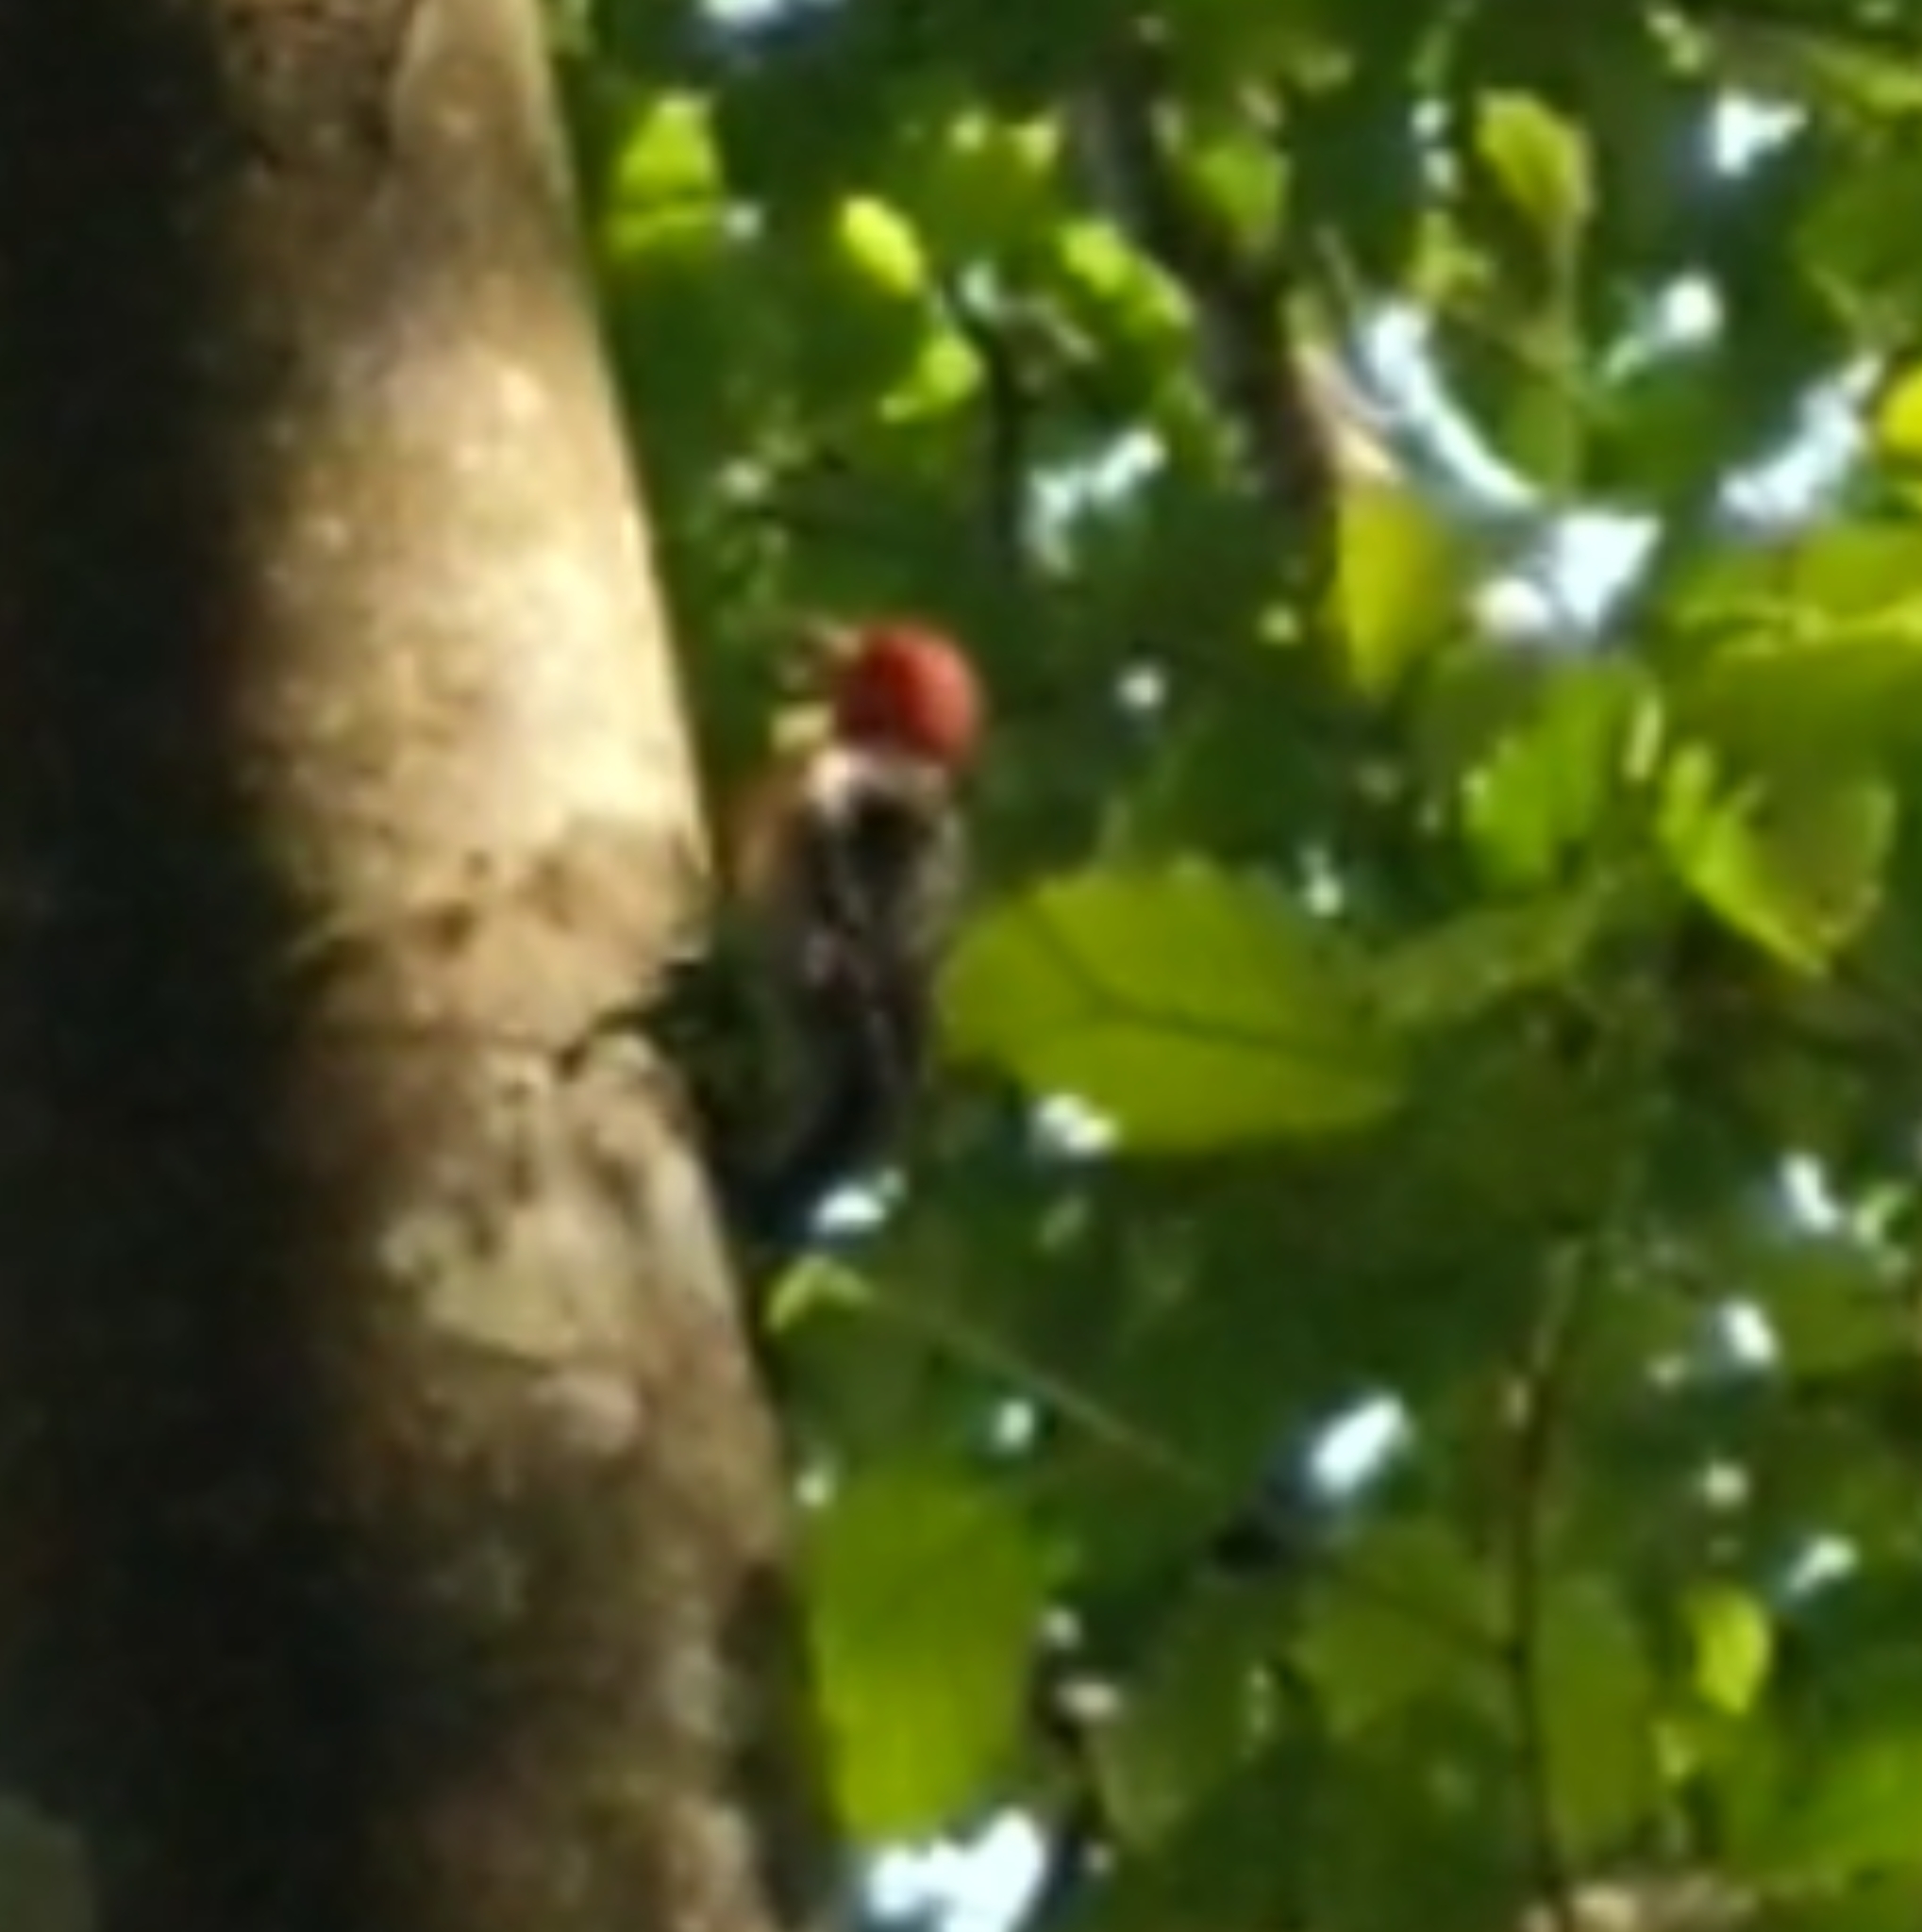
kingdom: Animalia
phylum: Chordata
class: Aves
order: Piciformes
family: Picidae
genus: Sphyrapicus
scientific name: Sphyrapicus ruber
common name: Red-breasted sapsucker
